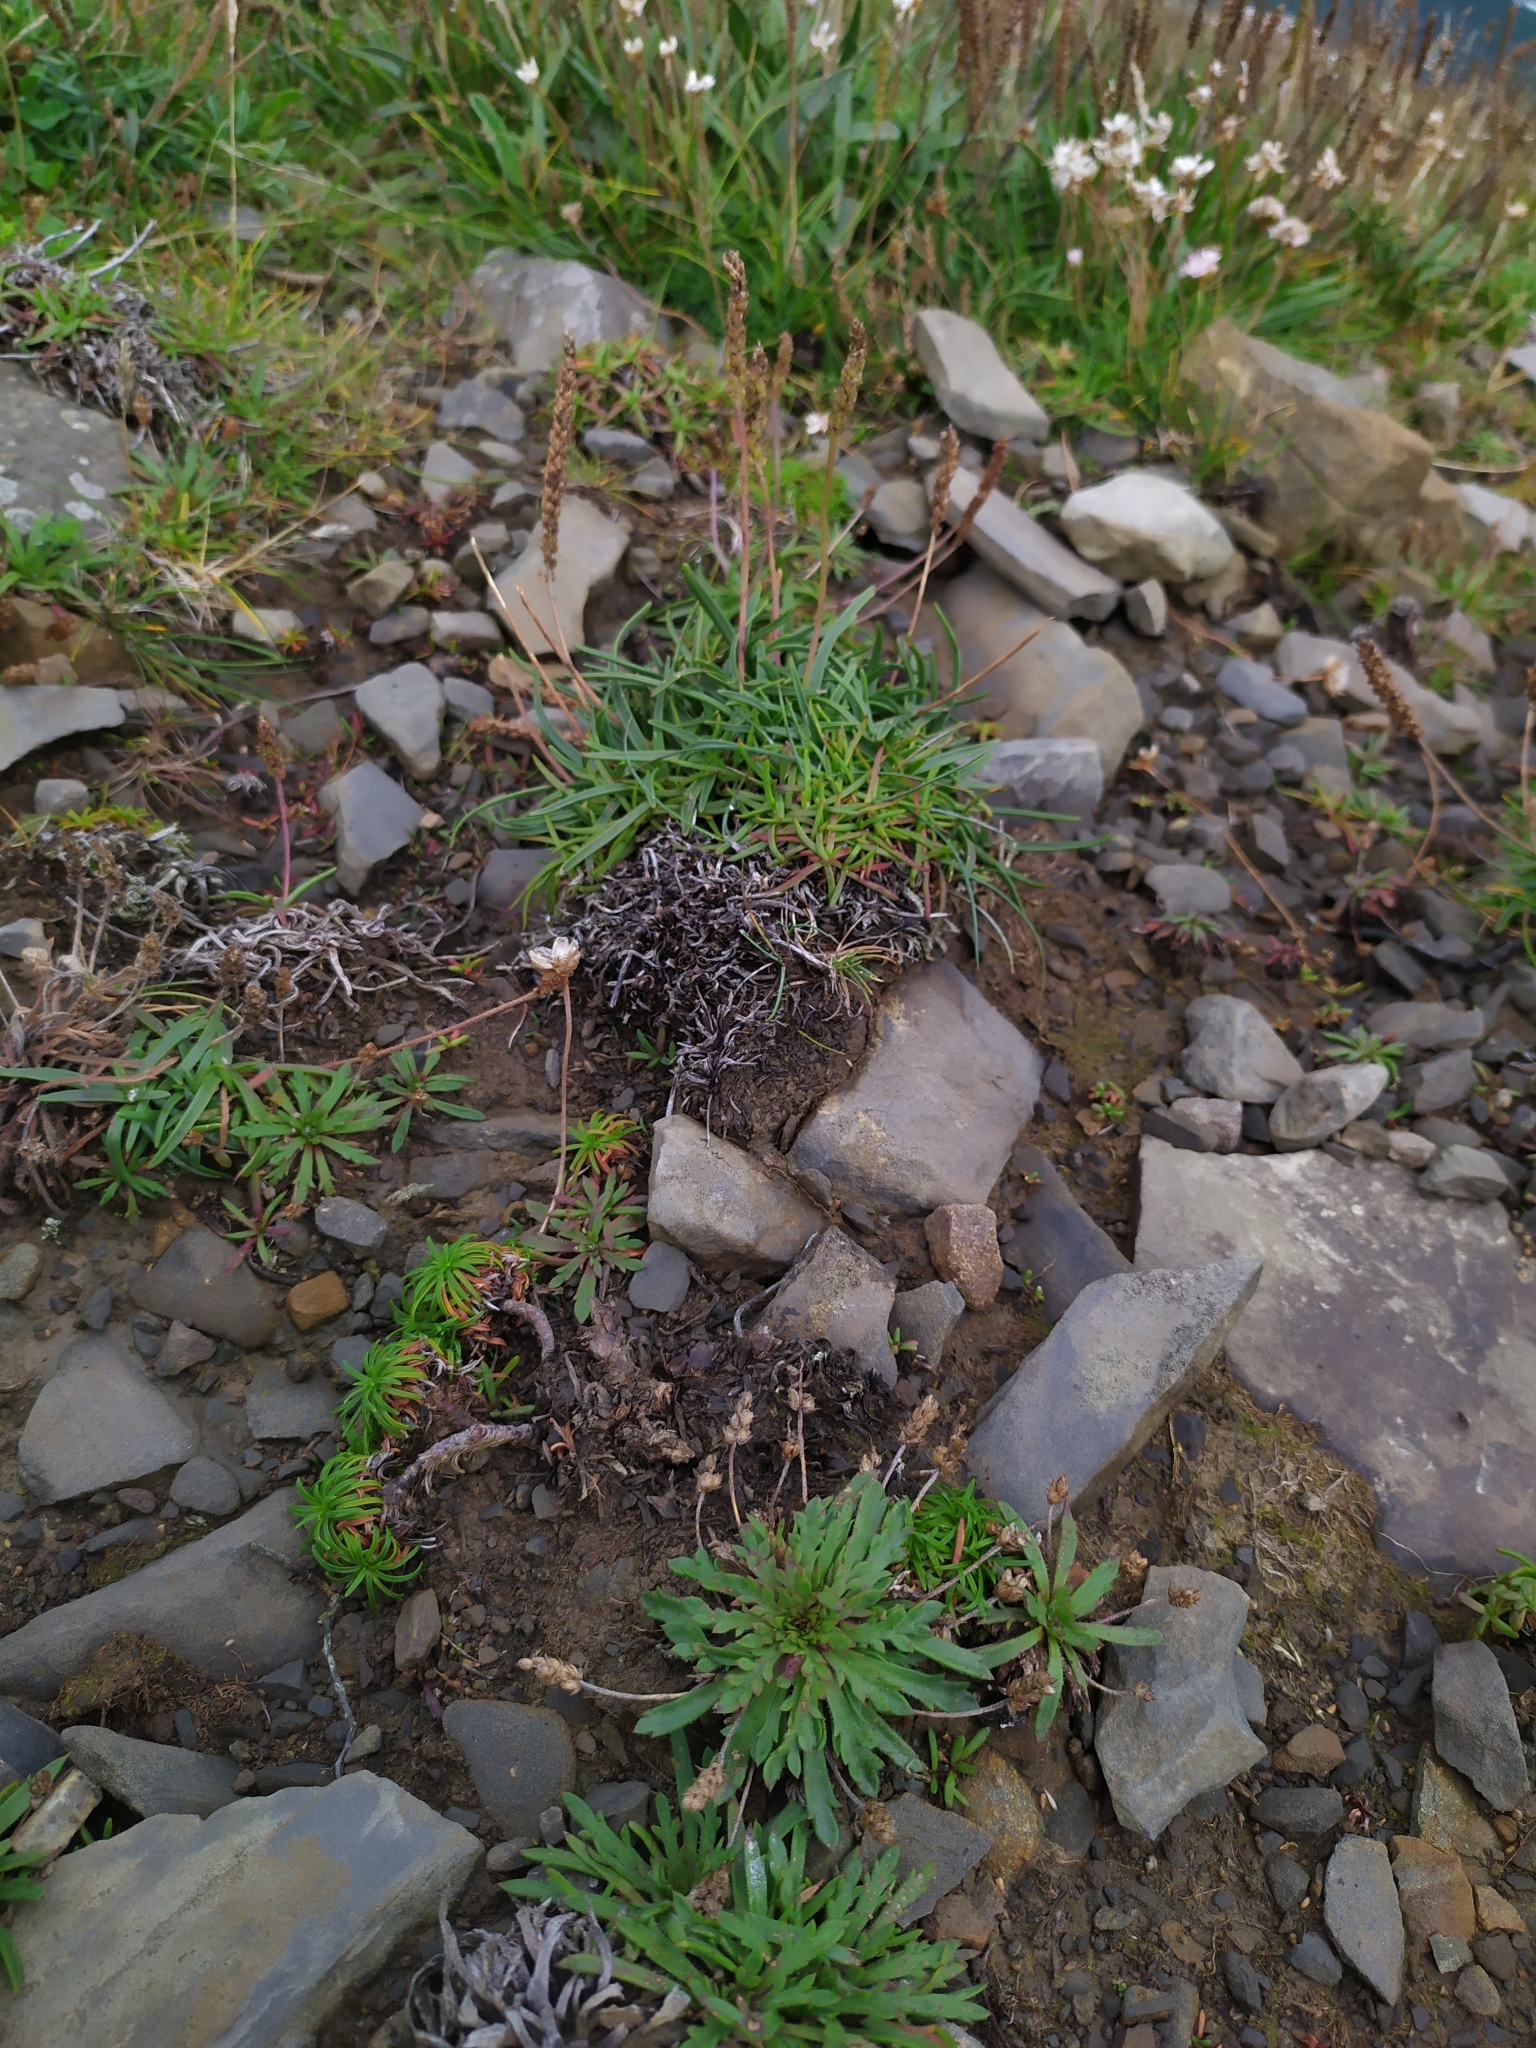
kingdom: Plantae
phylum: Tracheophyta
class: Magnoliopsida
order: Lamiales
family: Plantaginaceae
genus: Plantago
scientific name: Plantago coronopus
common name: Buck's-horn plantain
